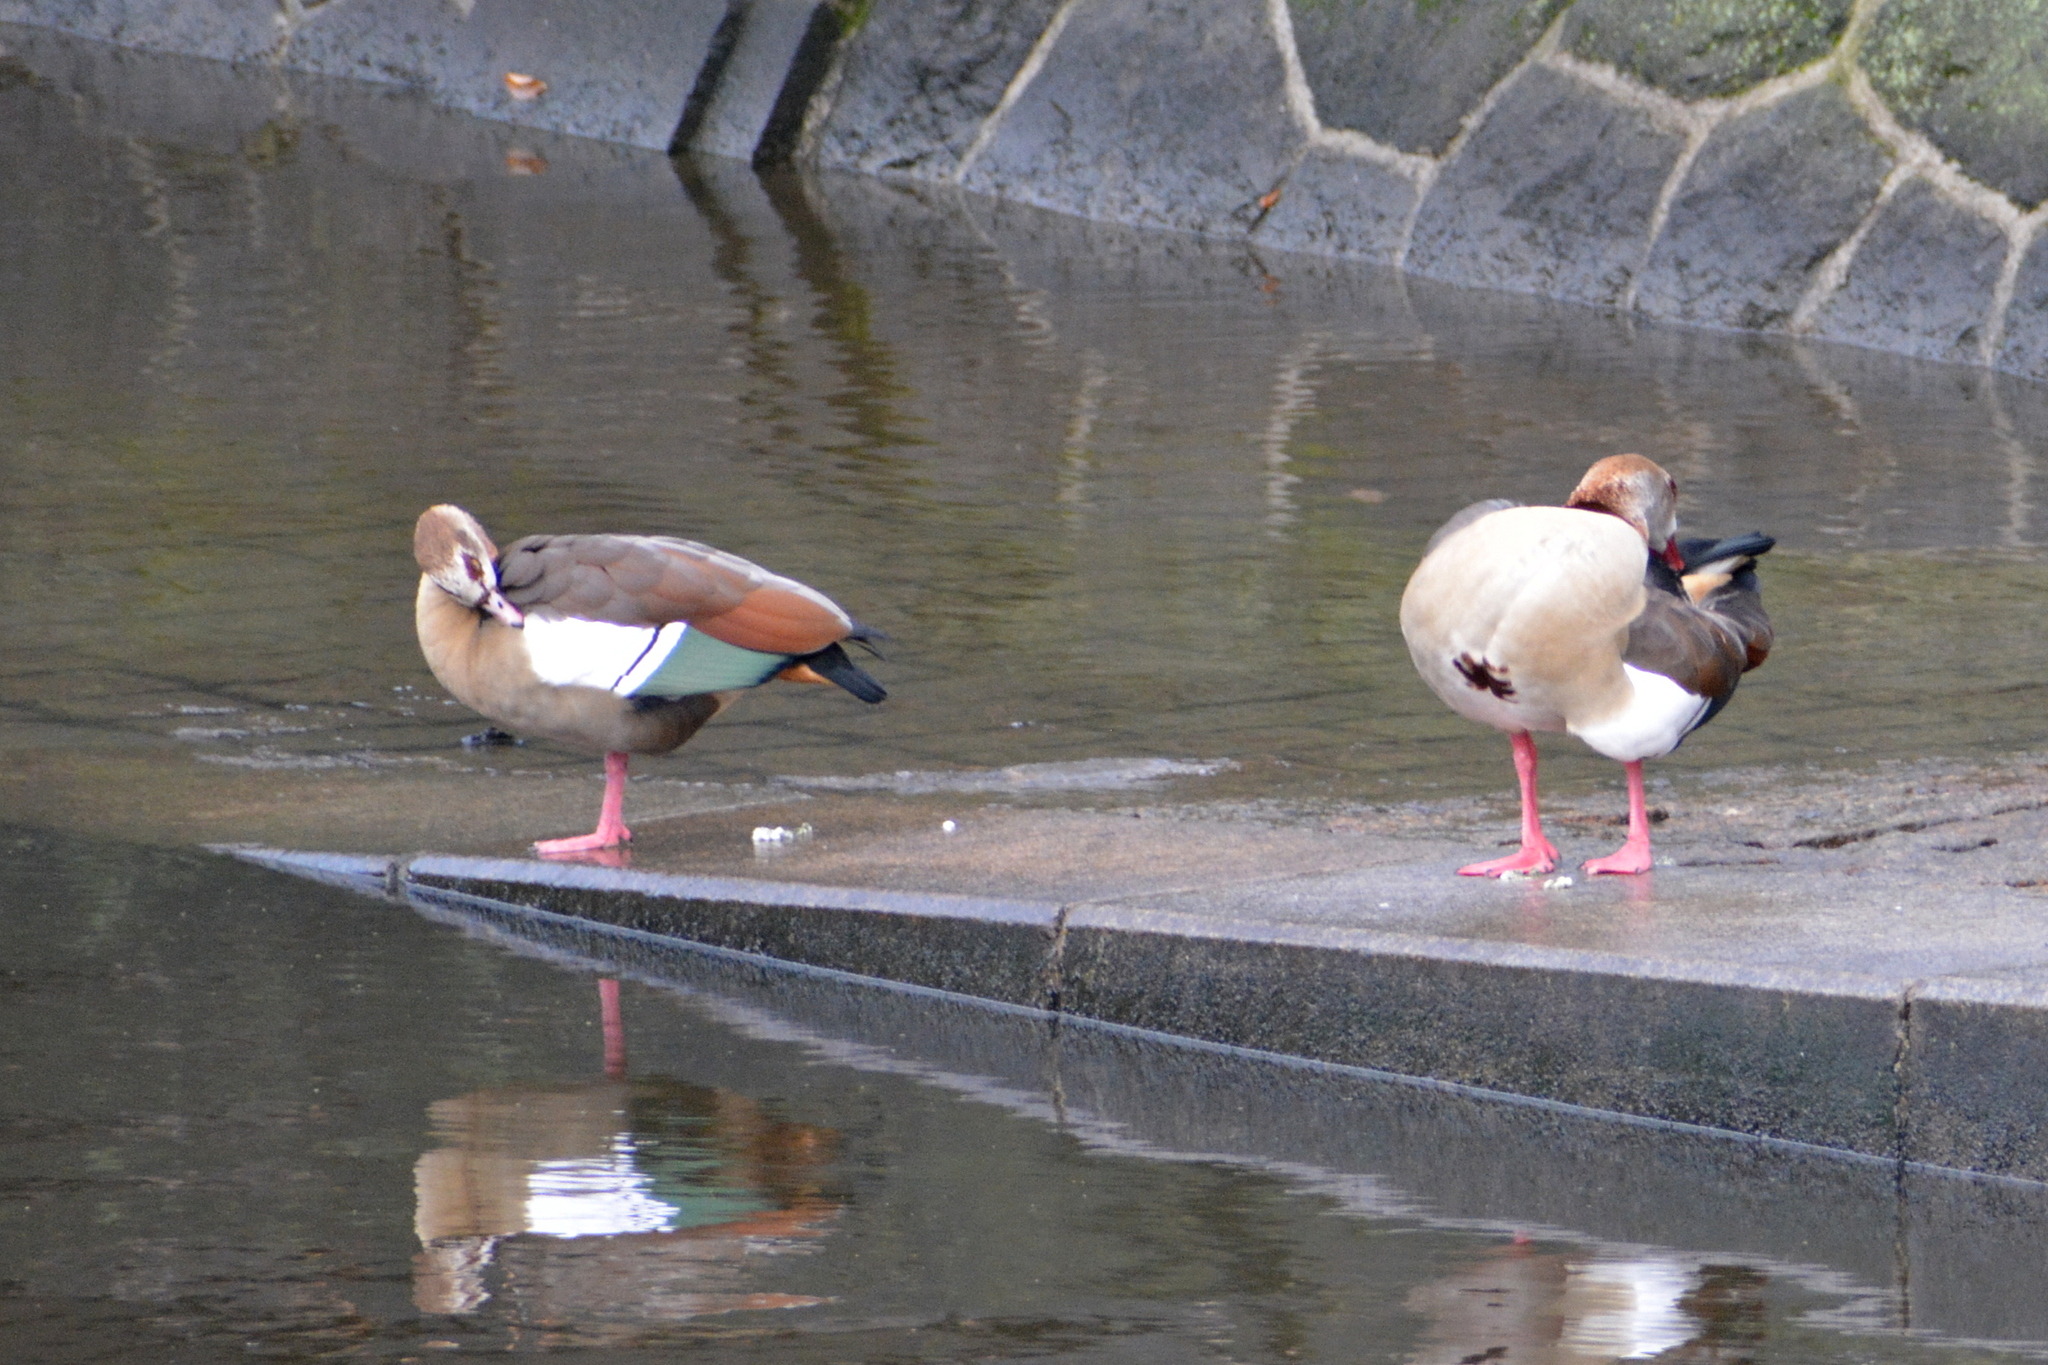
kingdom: Animalia
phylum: Chordata
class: Aves
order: Anseriformes
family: Anatidae
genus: Alopochen
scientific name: Alopochen aegyptiaca
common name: Egyptian goose
